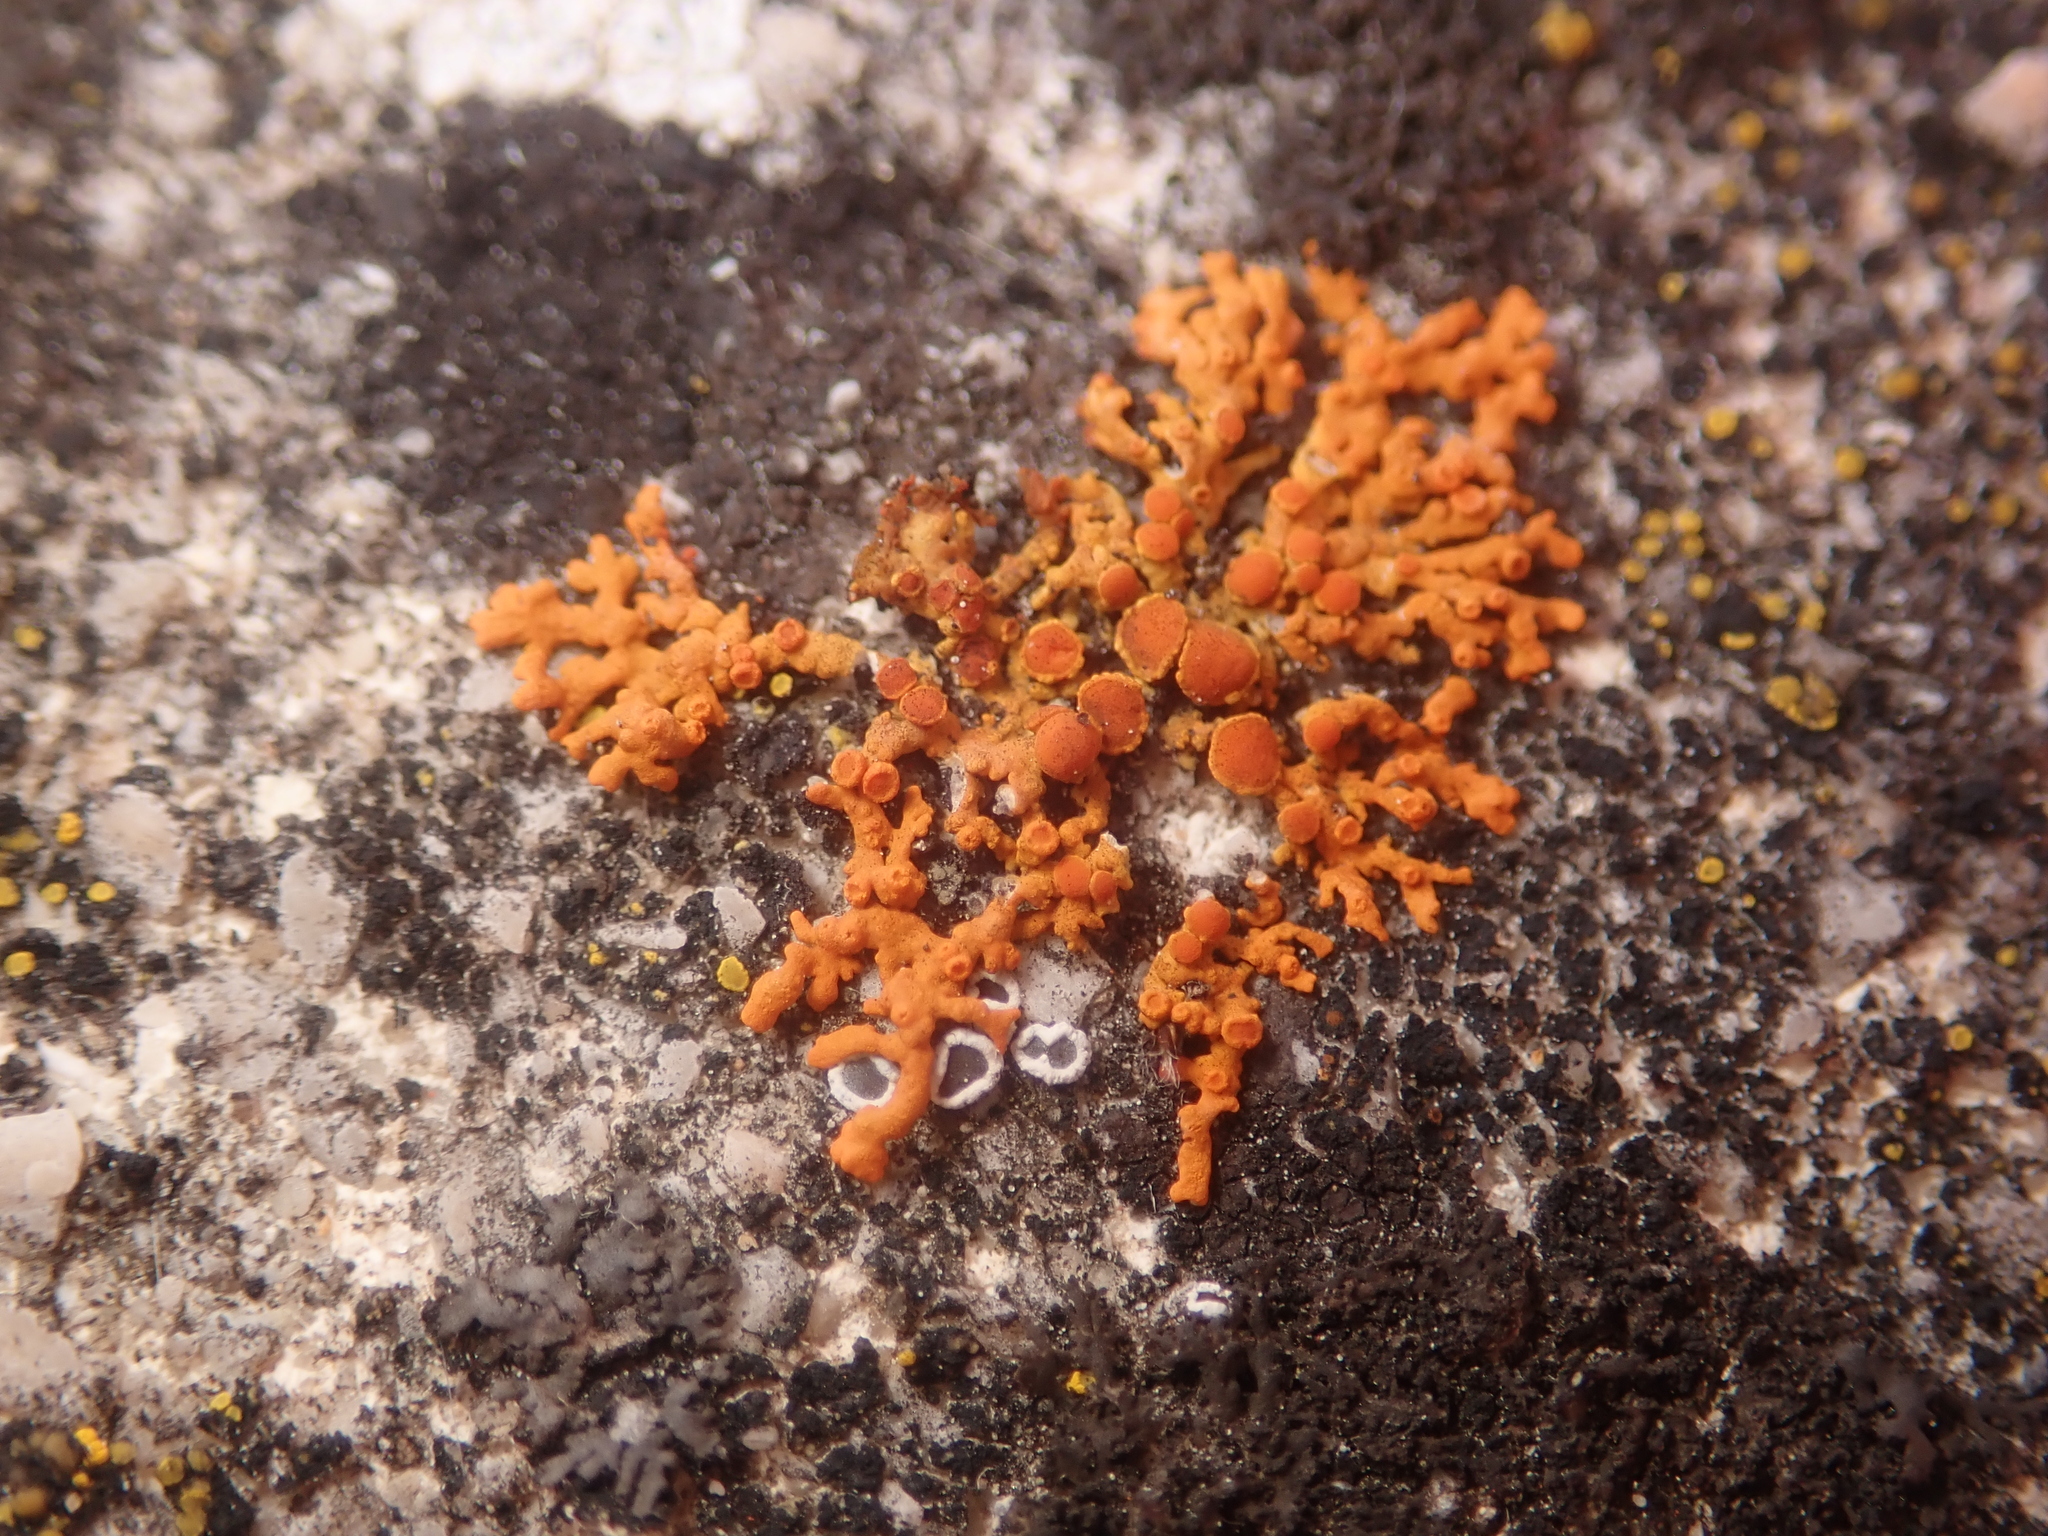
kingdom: Fungi
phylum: Ascomycota
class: Lecanoromycetes
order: Teloschistales
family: Teloschistaceae
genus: Xanthoria
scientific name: Xanthoria elegans
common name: Elegant sunburst lichen
